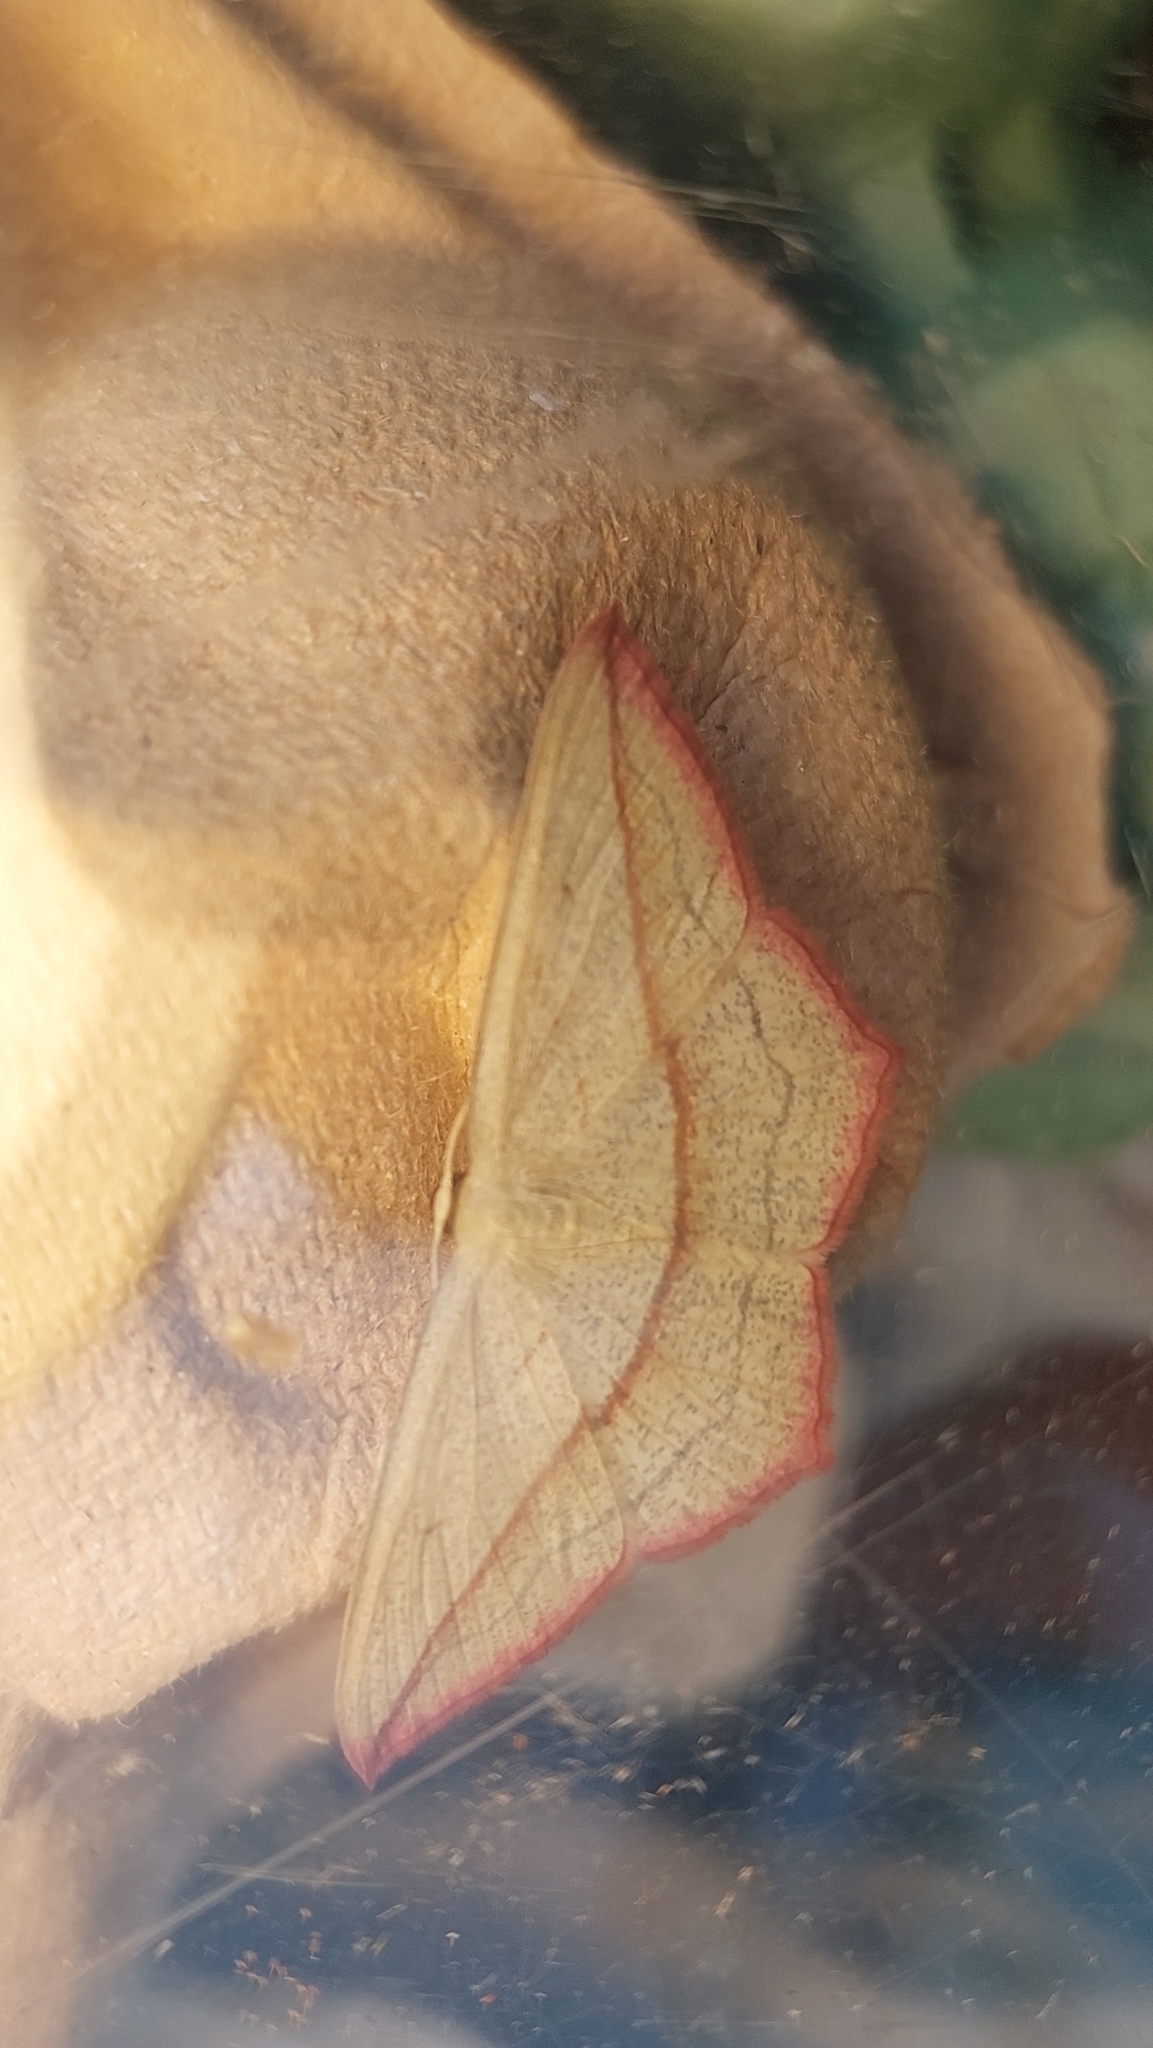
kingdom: Animalia
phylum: Arthropoda
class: Insecta
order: Lepidoptera
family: Geometridae
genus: Timandra
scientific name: Timandra comae
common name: Blood-vein
